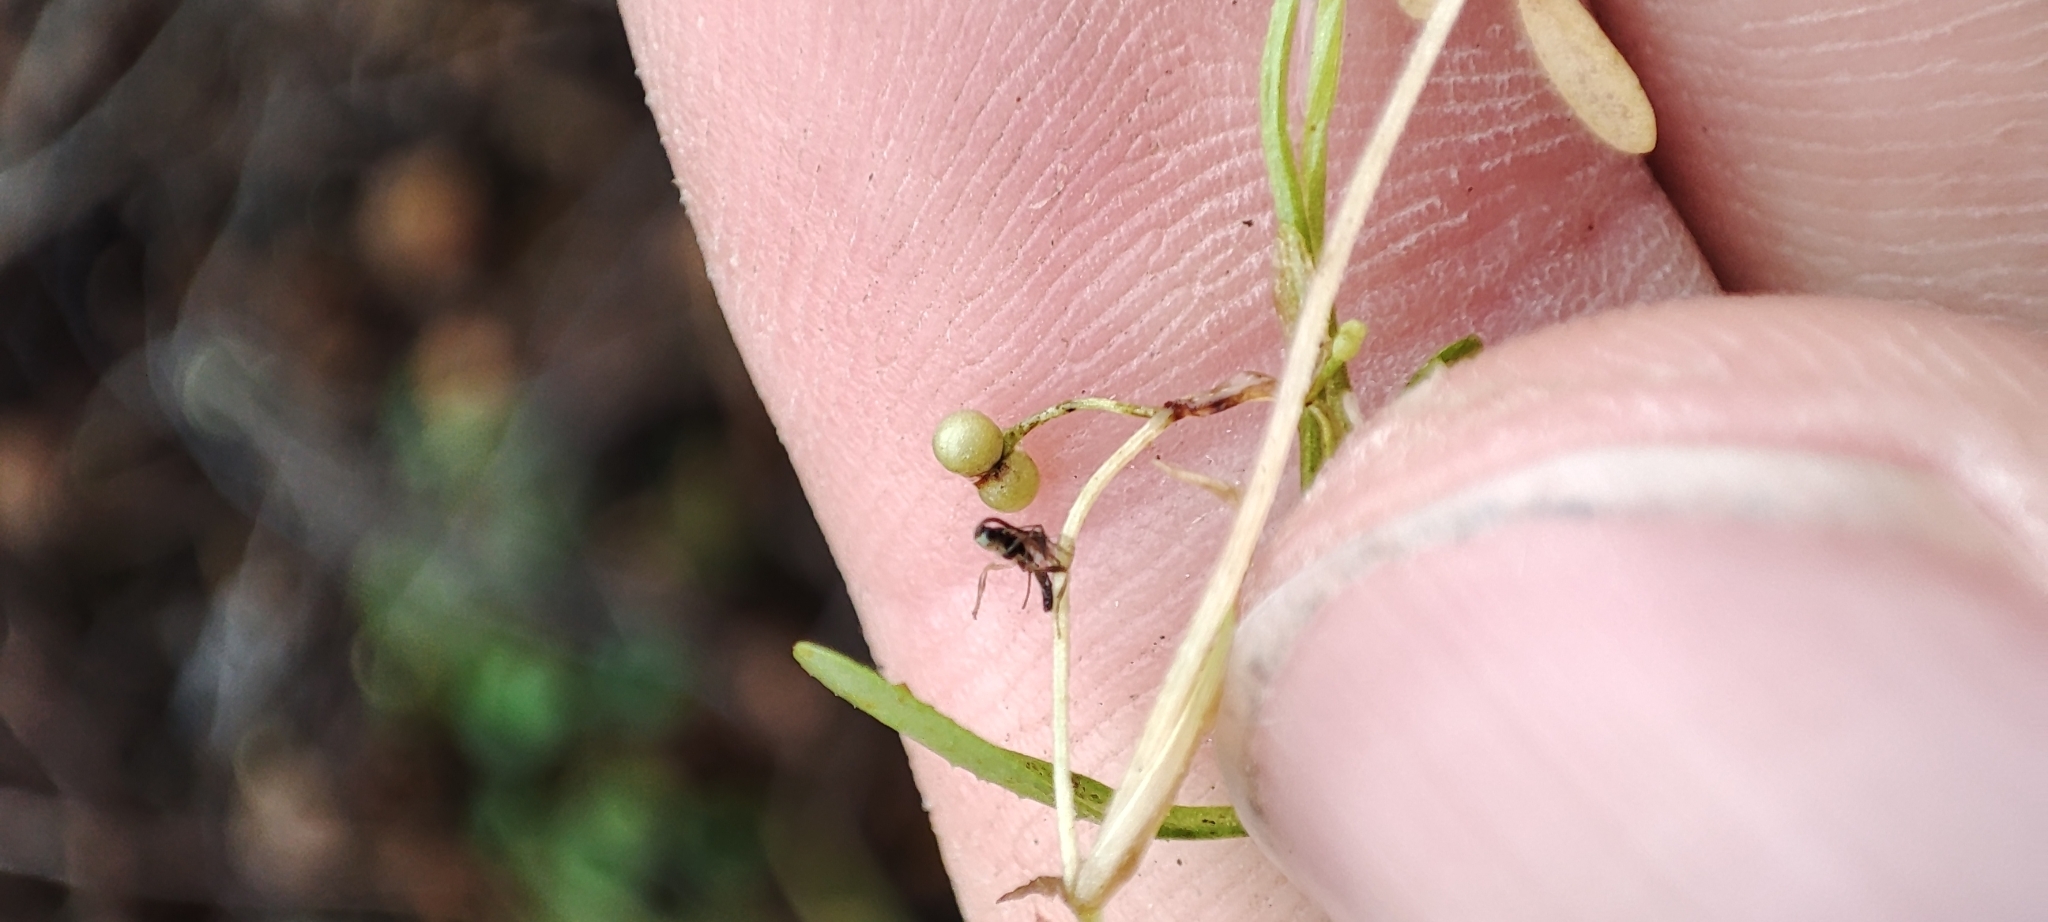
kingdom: Plantae
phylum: Tracheophyta
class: Magnoliopsida
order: Gentianales
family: Rubiaceae
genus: Galium
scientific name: Galium trifidum
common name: Small bedstraw
